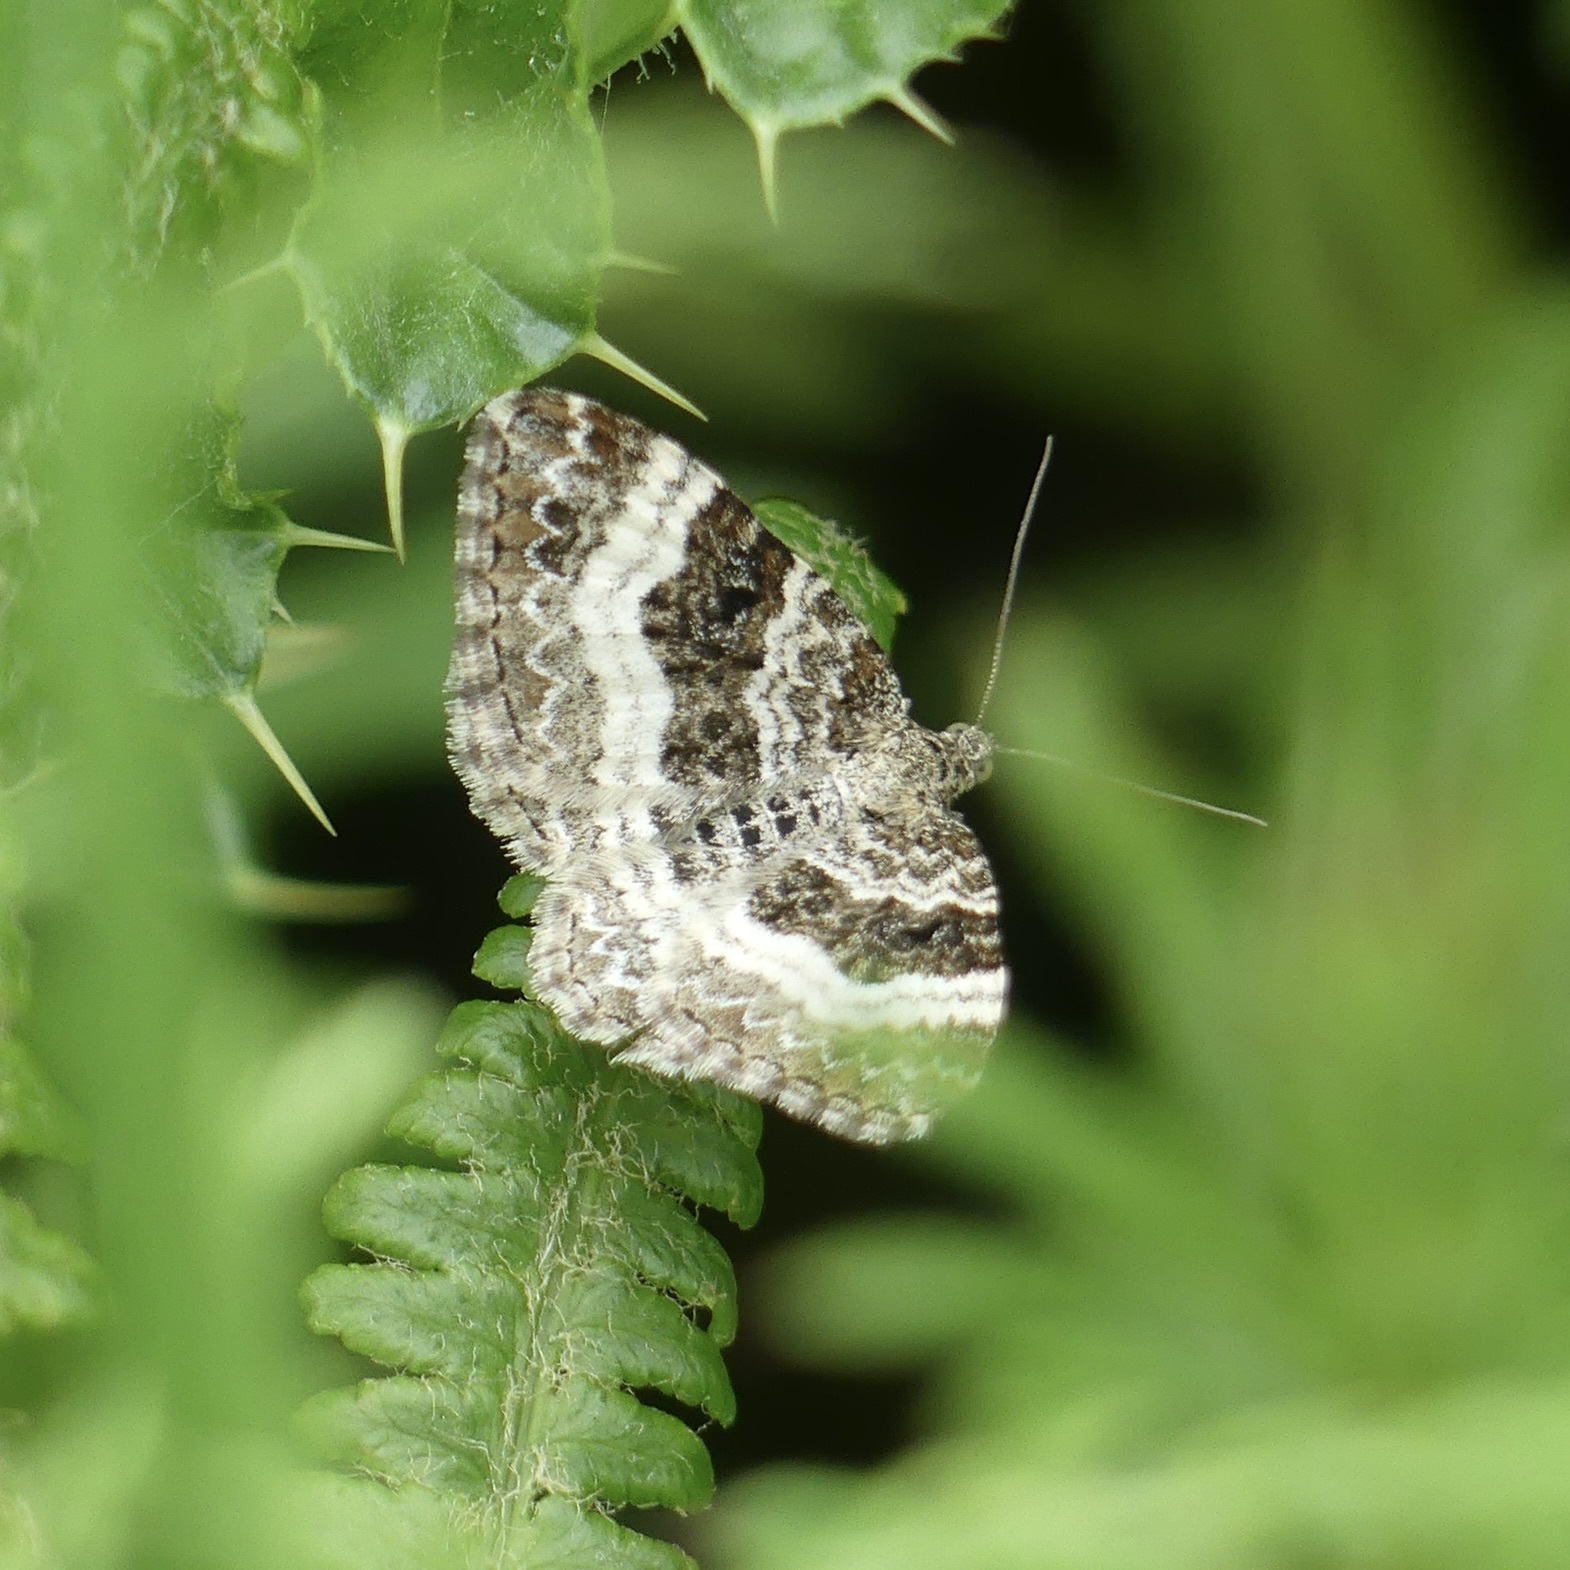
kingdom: Animalia
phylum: Arthropoda
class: Insecta
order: Lepidoptera
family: Geometridae
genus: Epirrhoe
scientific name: Epirrhoe alternata
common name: Common carpet
